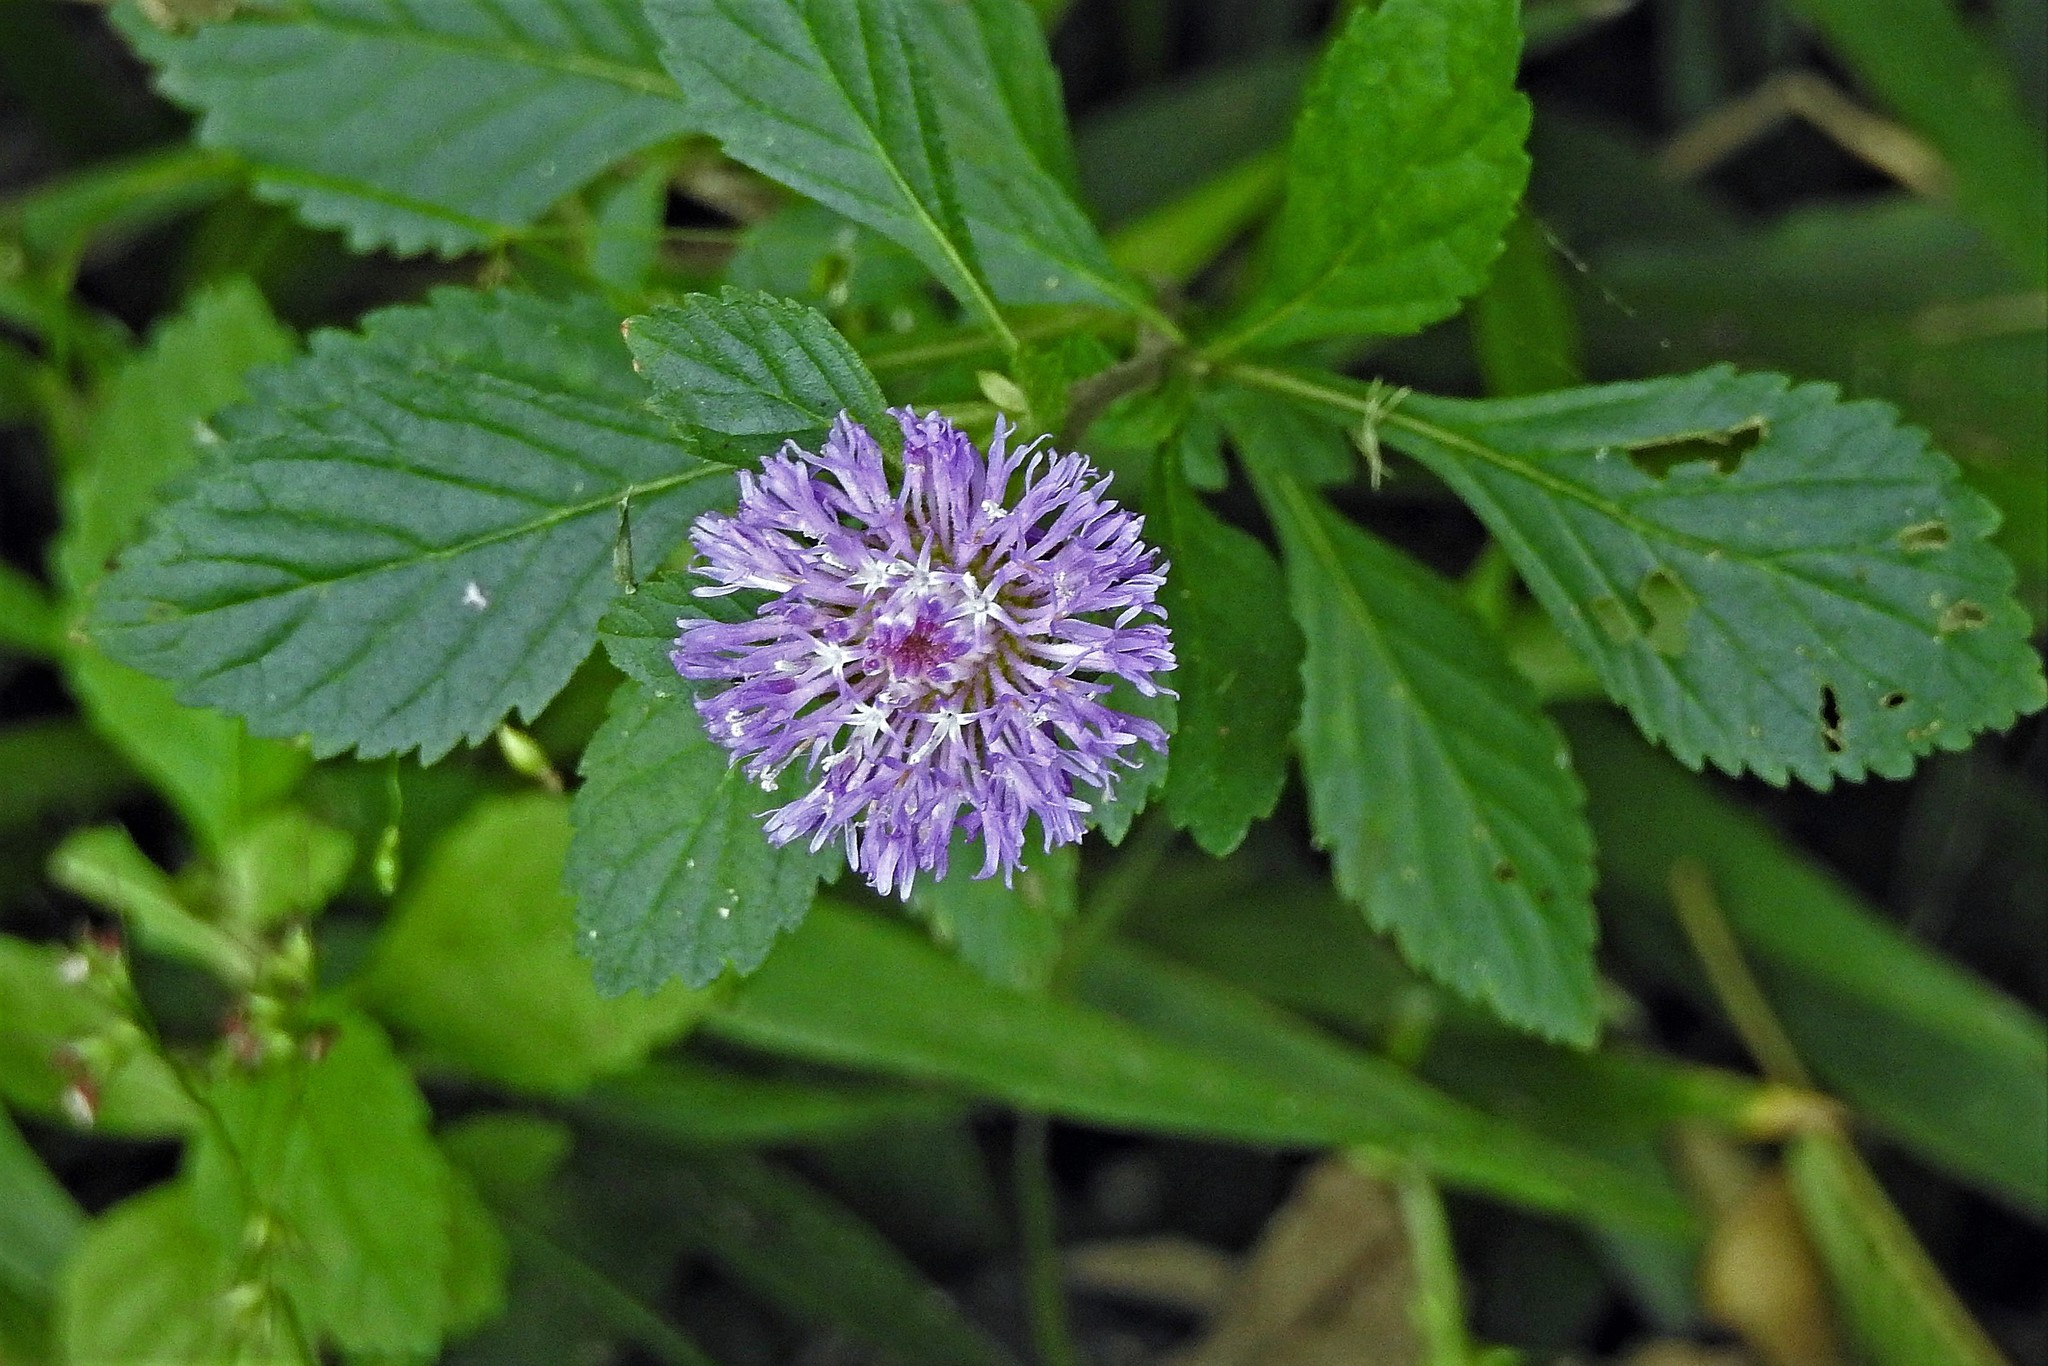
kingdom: Plantae
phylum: Tracheophyta
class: Magnoliopsida
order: Asterales
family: Asteraceae
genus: Centratherum
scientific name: Centratherum punctatum
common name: Larkdaisy
